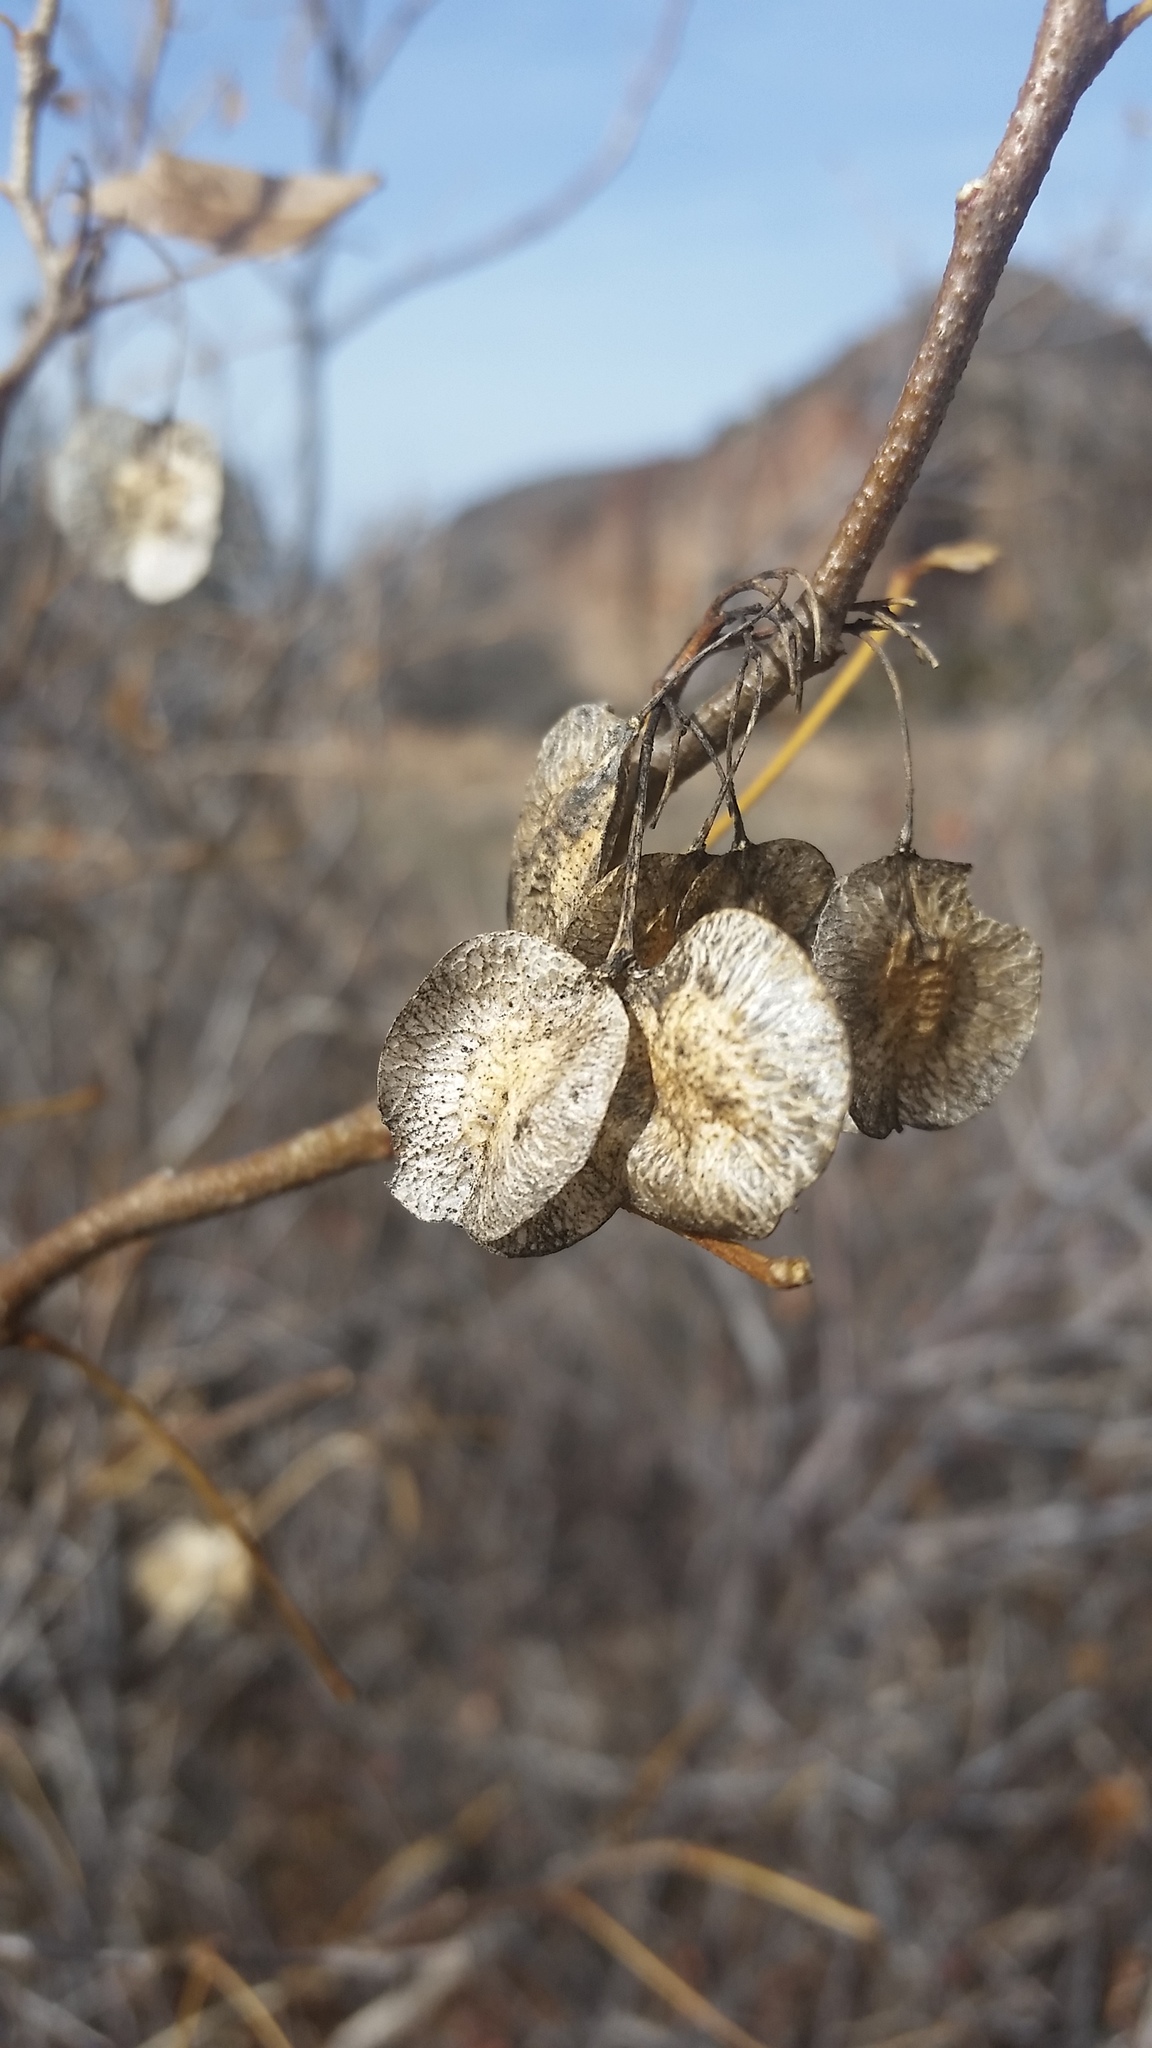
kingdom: Plantae
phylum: Tracheophyta
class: Magnoliopsida
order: Sapindales
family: Rutaceae
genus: Ptelea
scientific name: Ptelea trifoliata
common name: Common hop-tree
